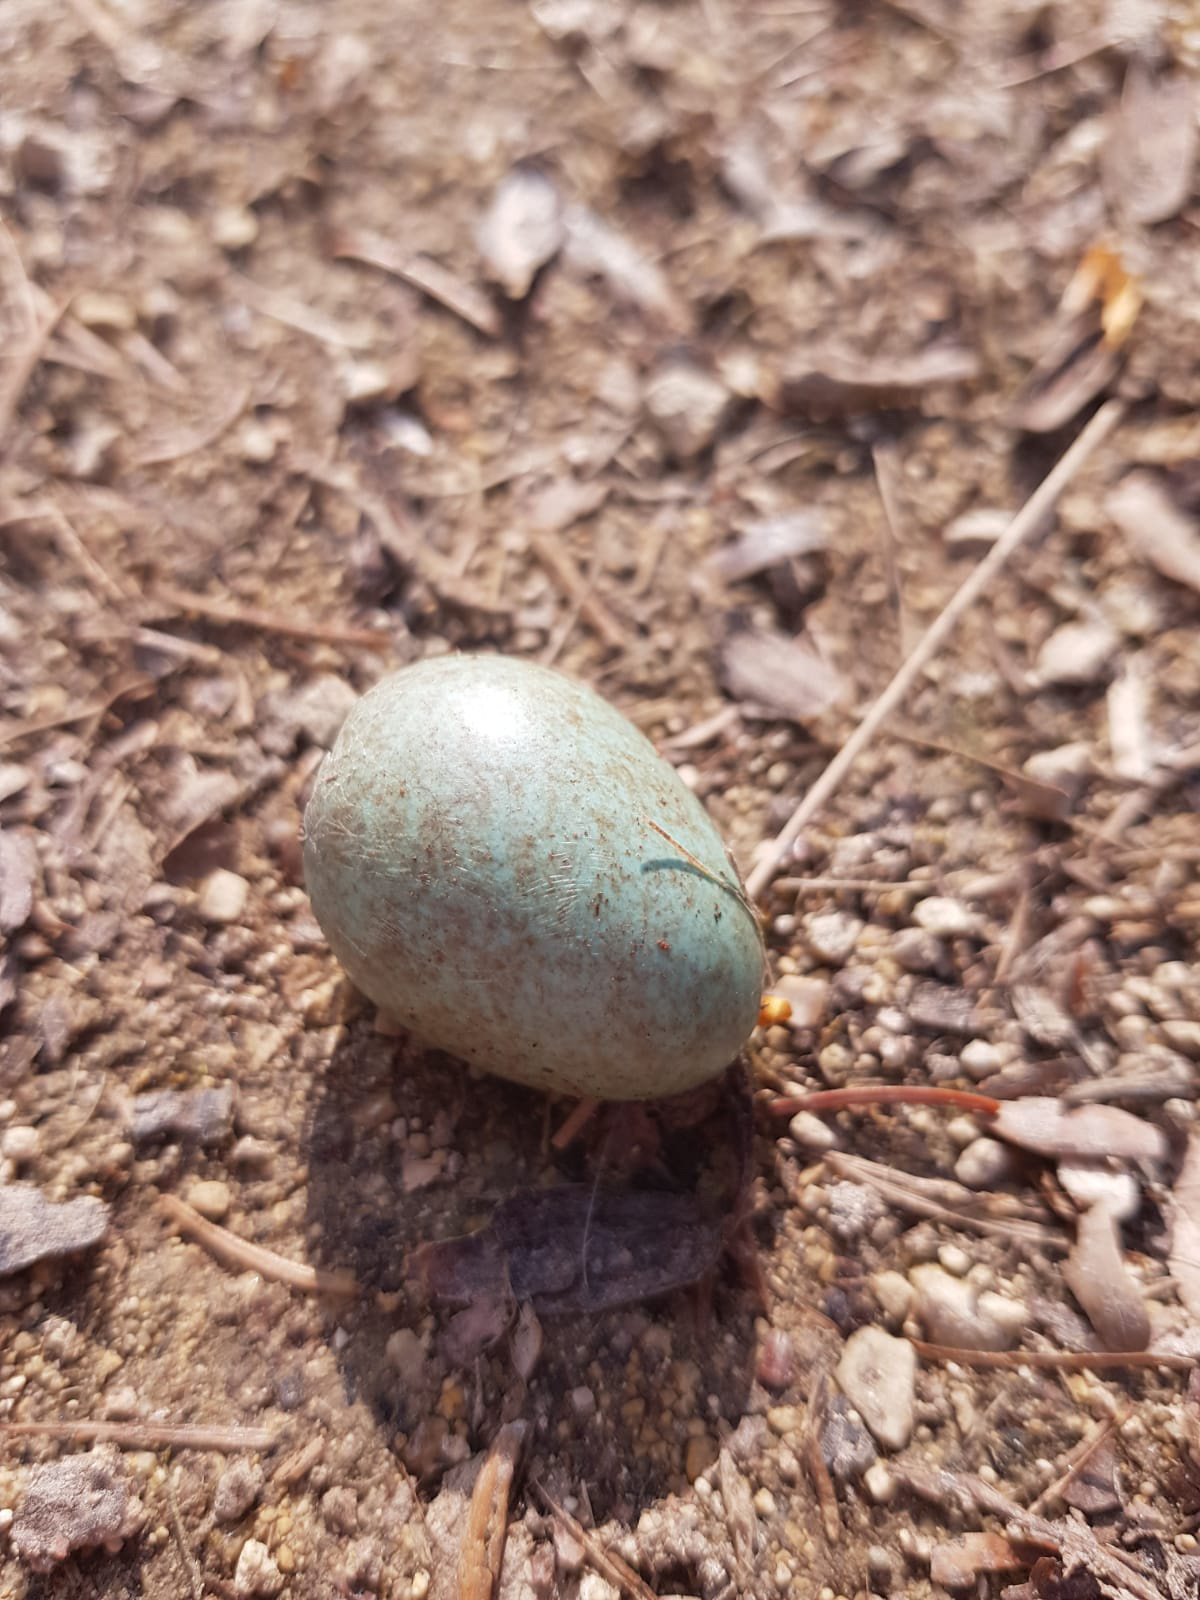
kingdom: Animalia
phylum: Chordata
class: Aves
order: Passeriformes
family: Turdidae
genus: Turdus
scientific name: Turdus merula
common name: Common blackbird
